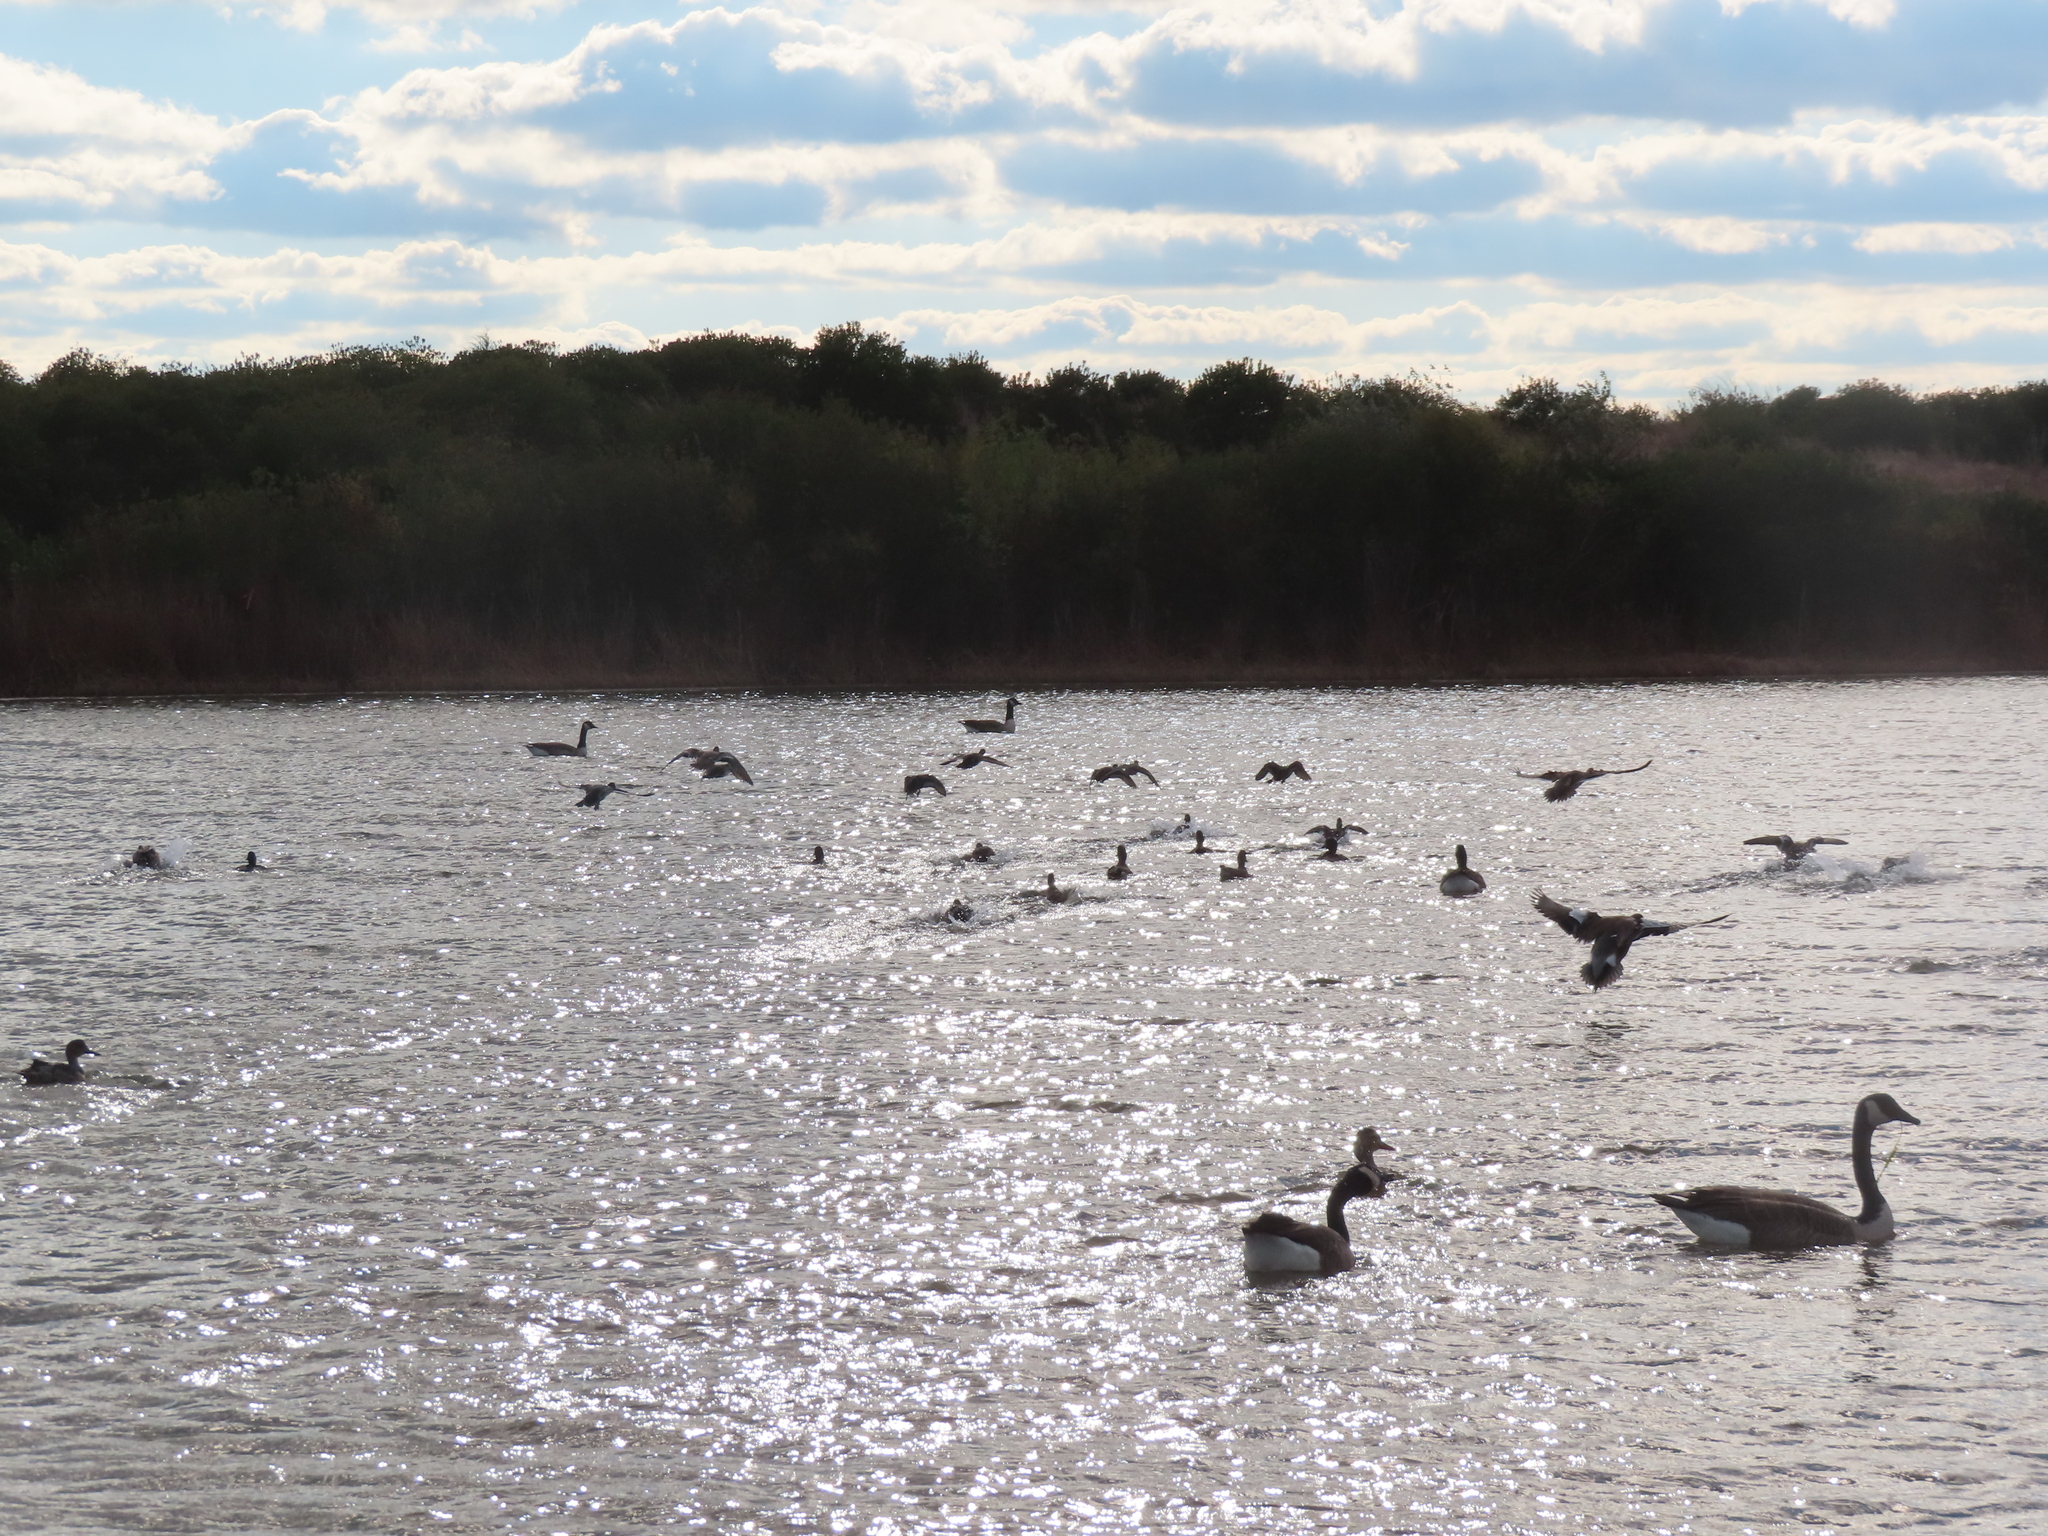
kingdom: Animalia
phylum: Chordata
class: Aves
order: Anseriformes
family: Anatidae
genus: Branta
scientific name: Branta canadensis
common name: Canada goose
